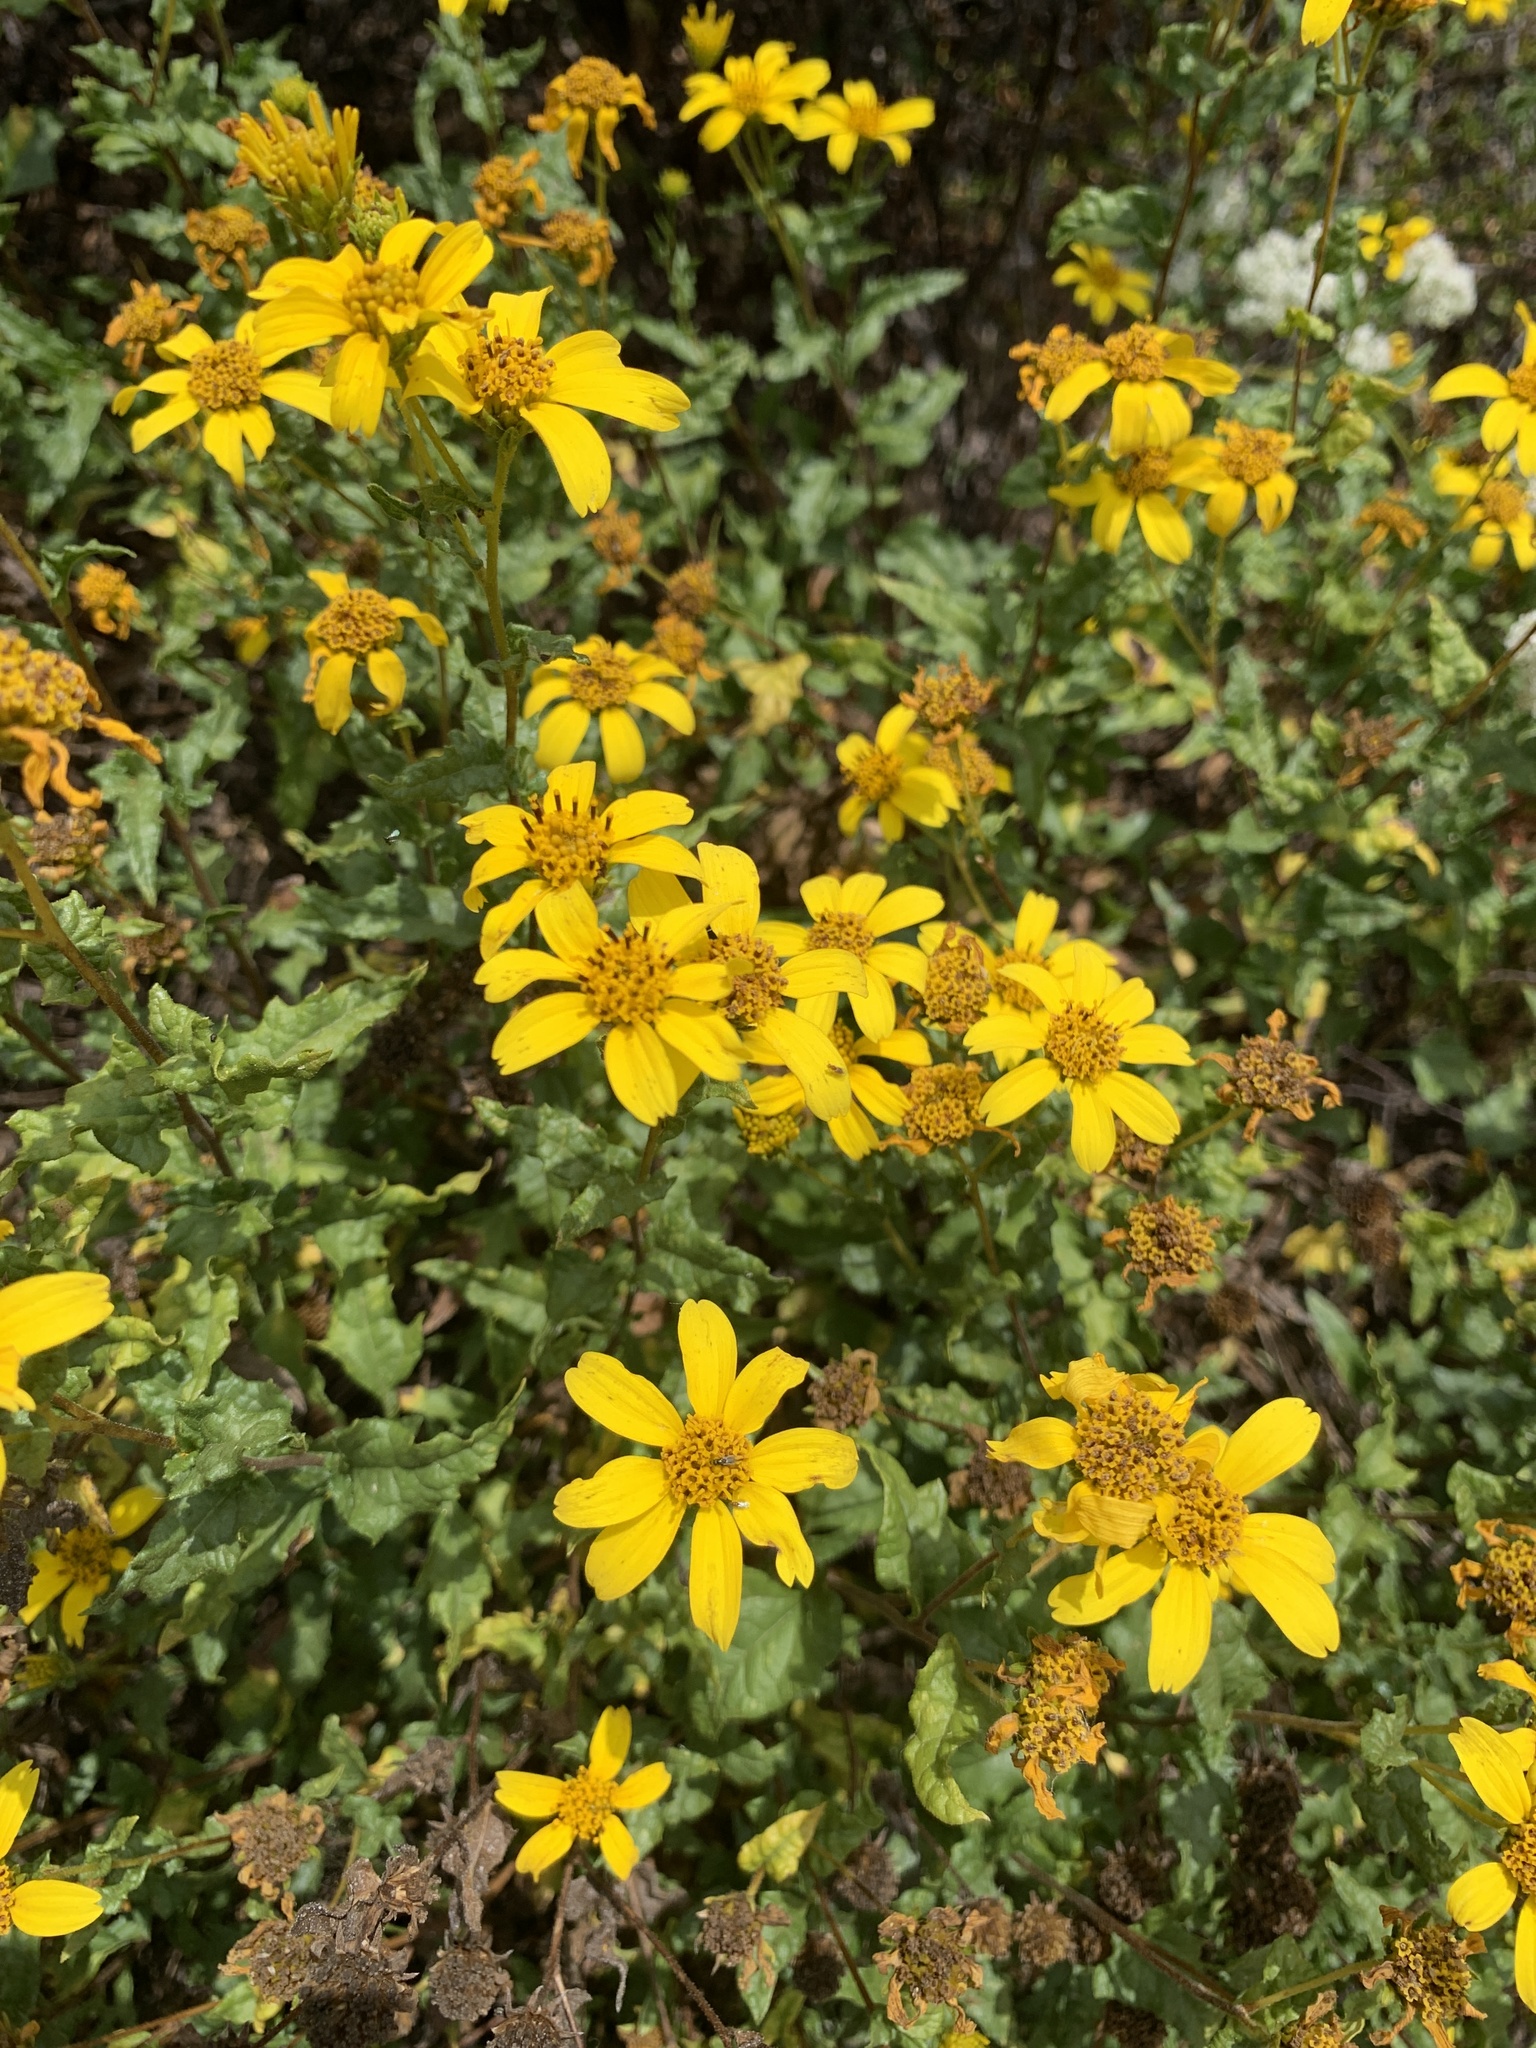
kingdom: Plantae
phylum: Tracheophyta
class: Magnoliopsida
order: Asterales
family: Asteraceae
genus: Bahiopsis
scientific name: Bahiopsis laciniata
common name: San diego county viguiera
